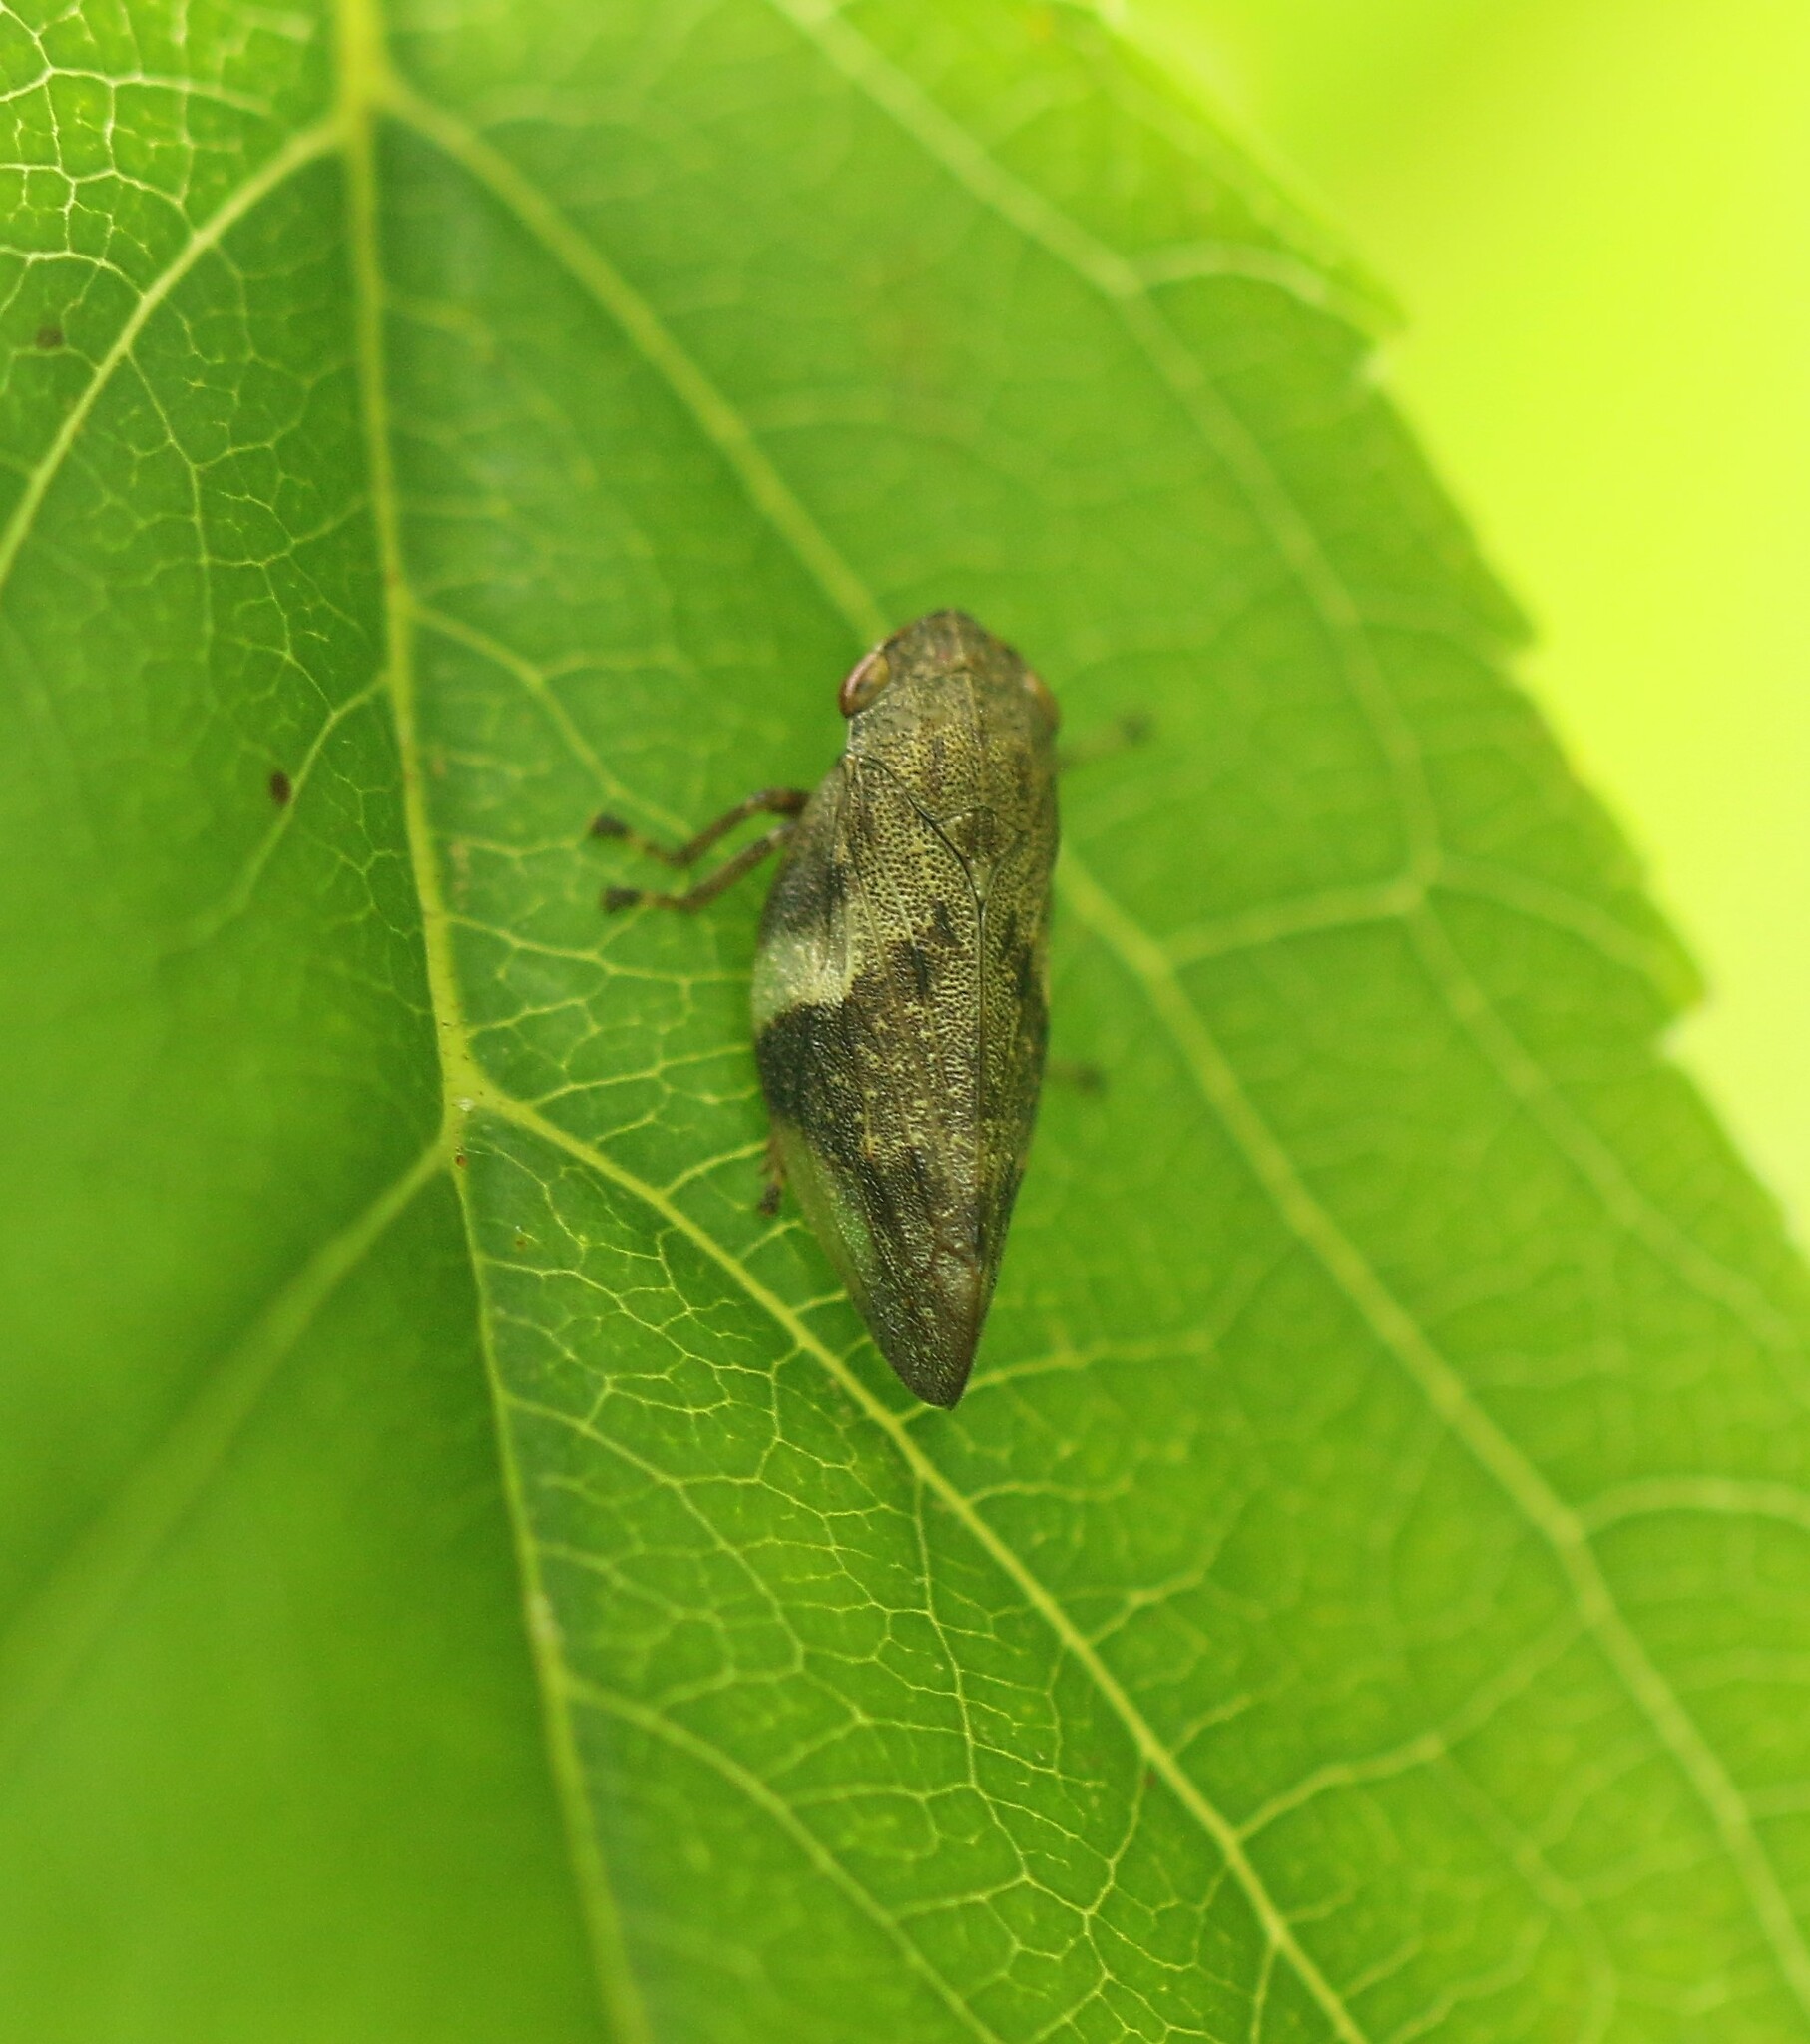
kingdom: Animalia
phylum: Arthropoda
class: Insecta
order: Hemiptera
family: Aphrophoridae
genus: Aphrophora
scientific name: Aphrophora alni
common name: European alder spittlebug
